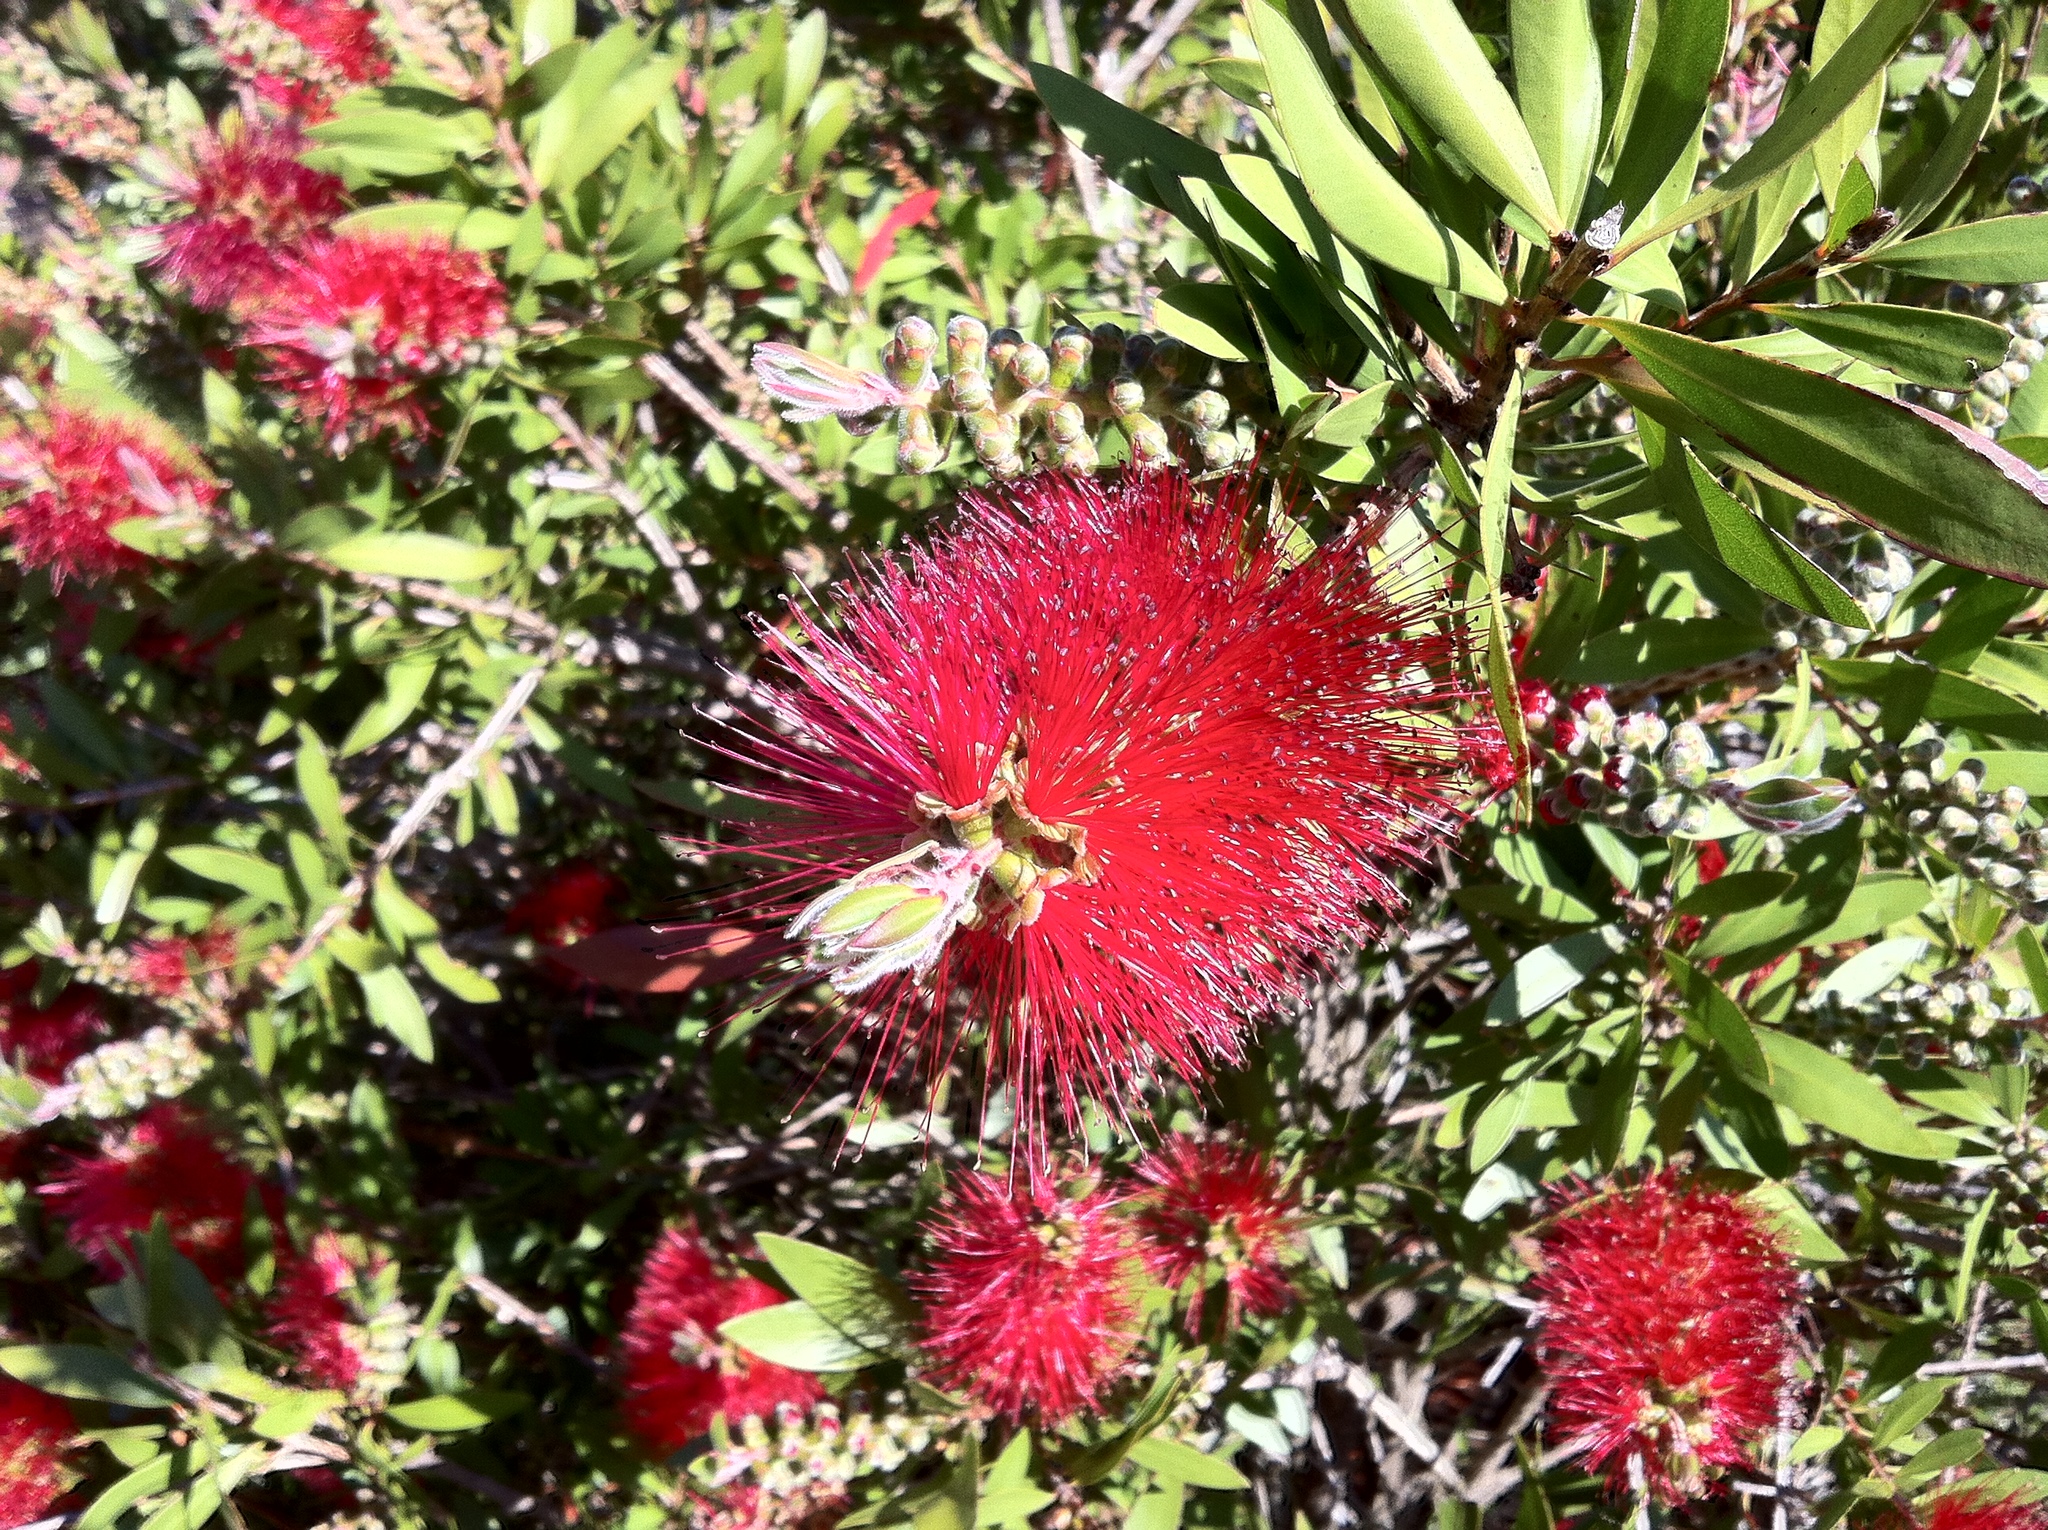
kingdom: Plantae
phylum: Tracheophyta
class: Magnoliopsida
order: Myrtales
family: Myrtaceae
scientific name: Myrtaceae
